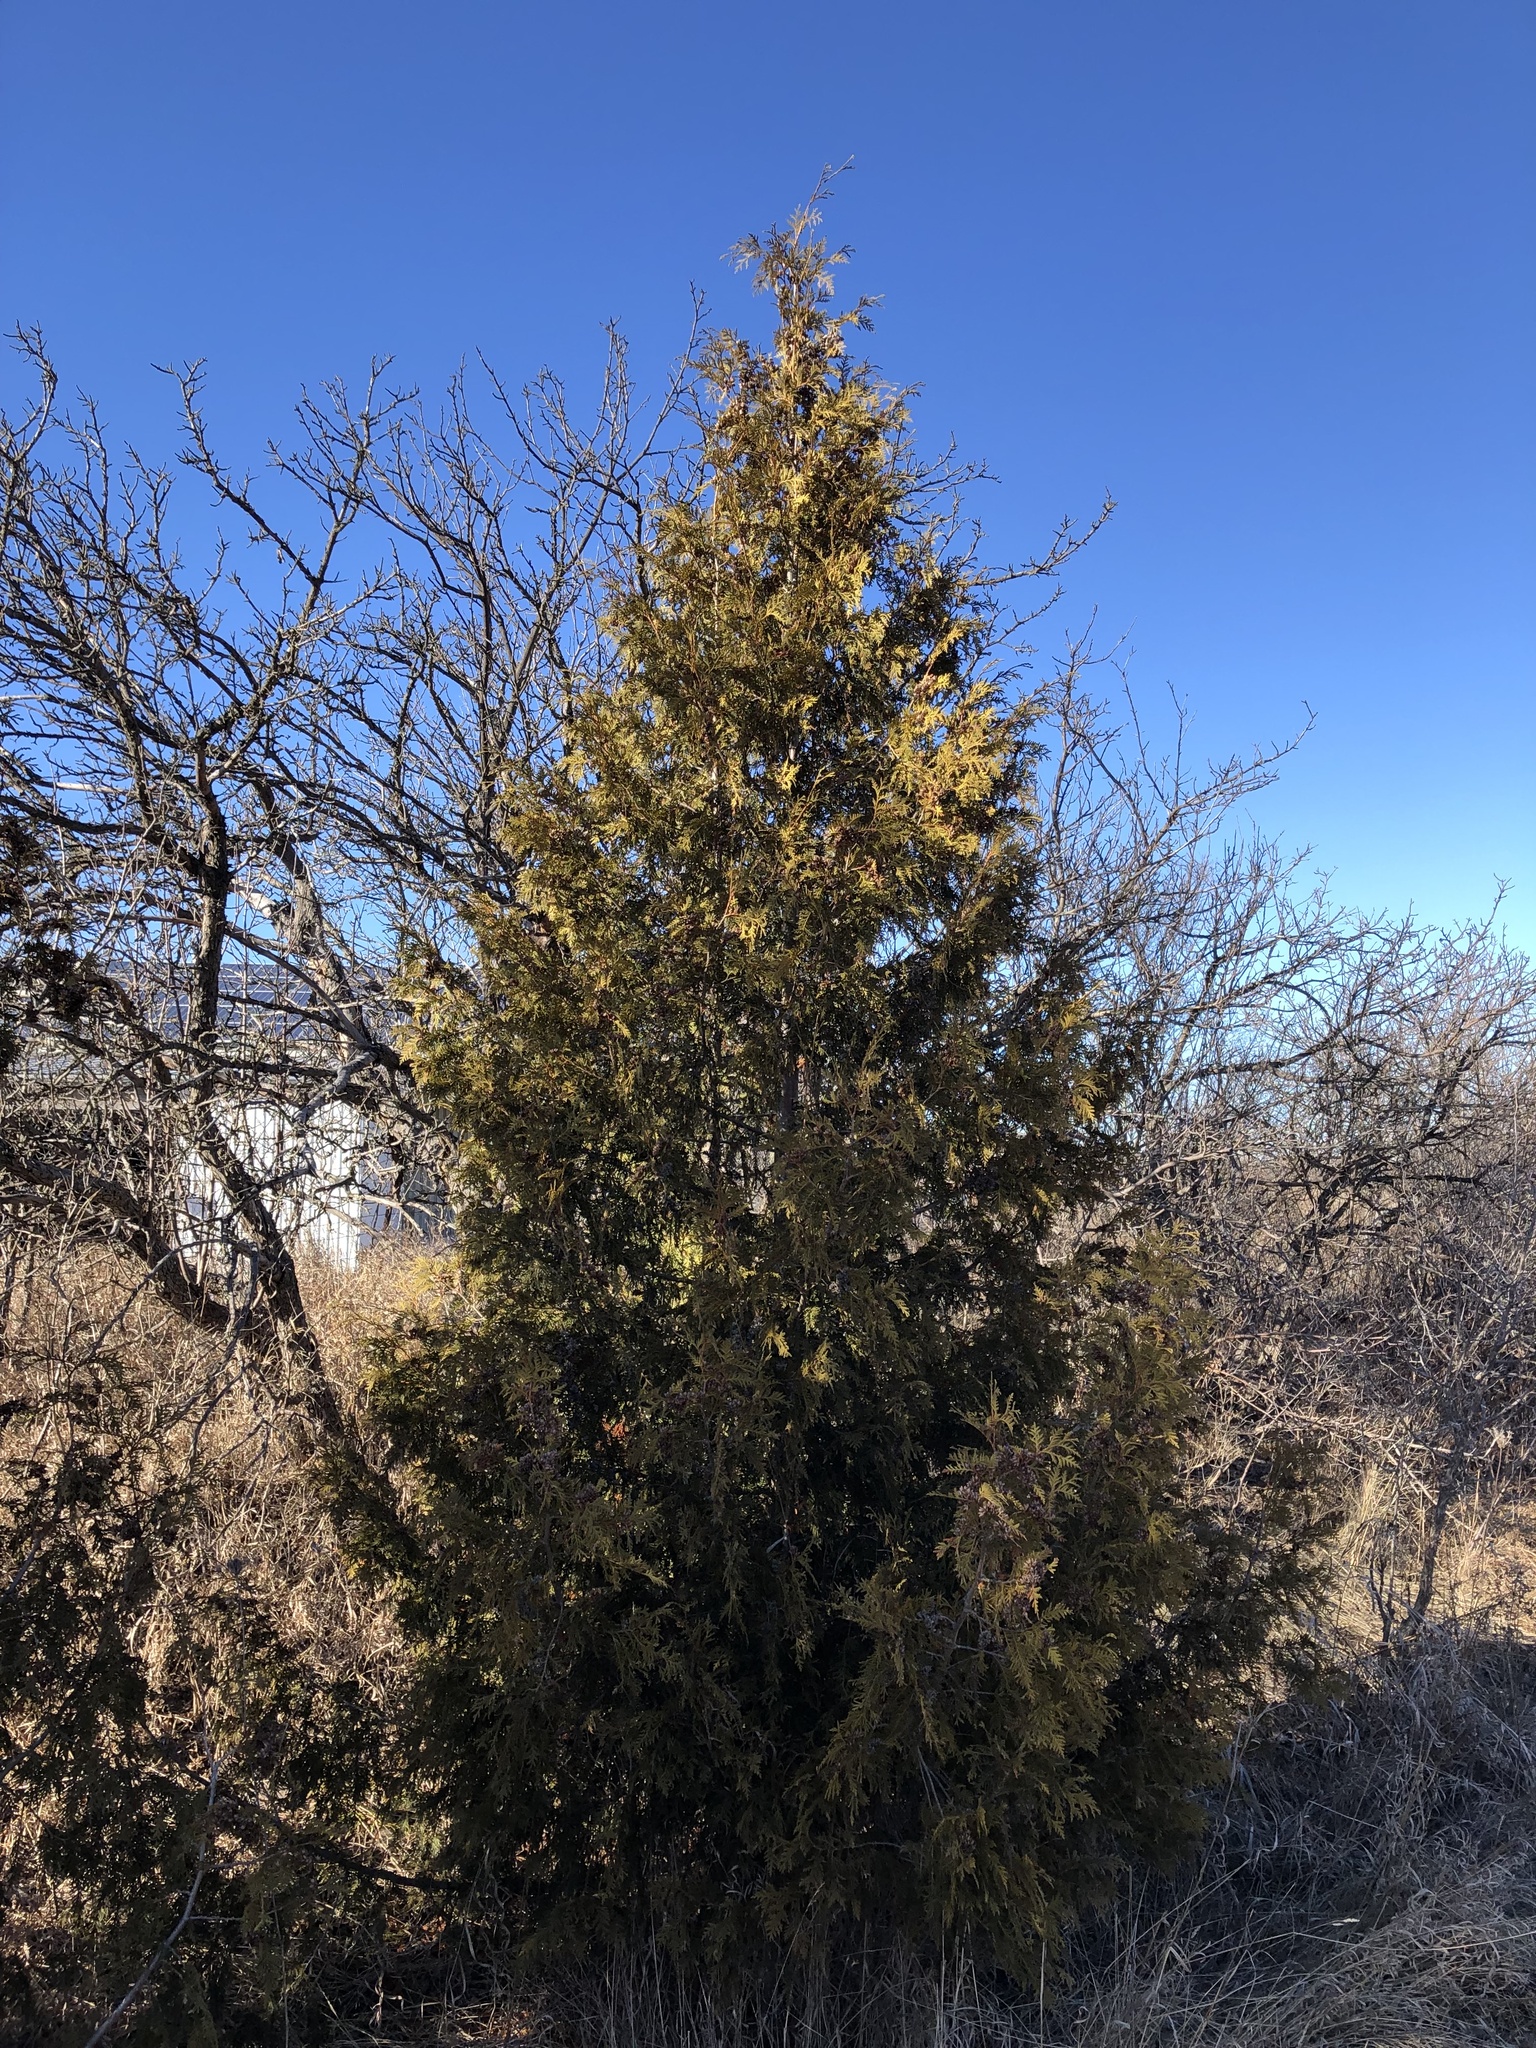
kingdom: Plantae
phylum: Tracheophyta
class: Pinopsida
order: Pinales
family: Cupressaceae
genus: Thuja
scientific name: Thuja occidentalis
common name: Northern white-cedar
